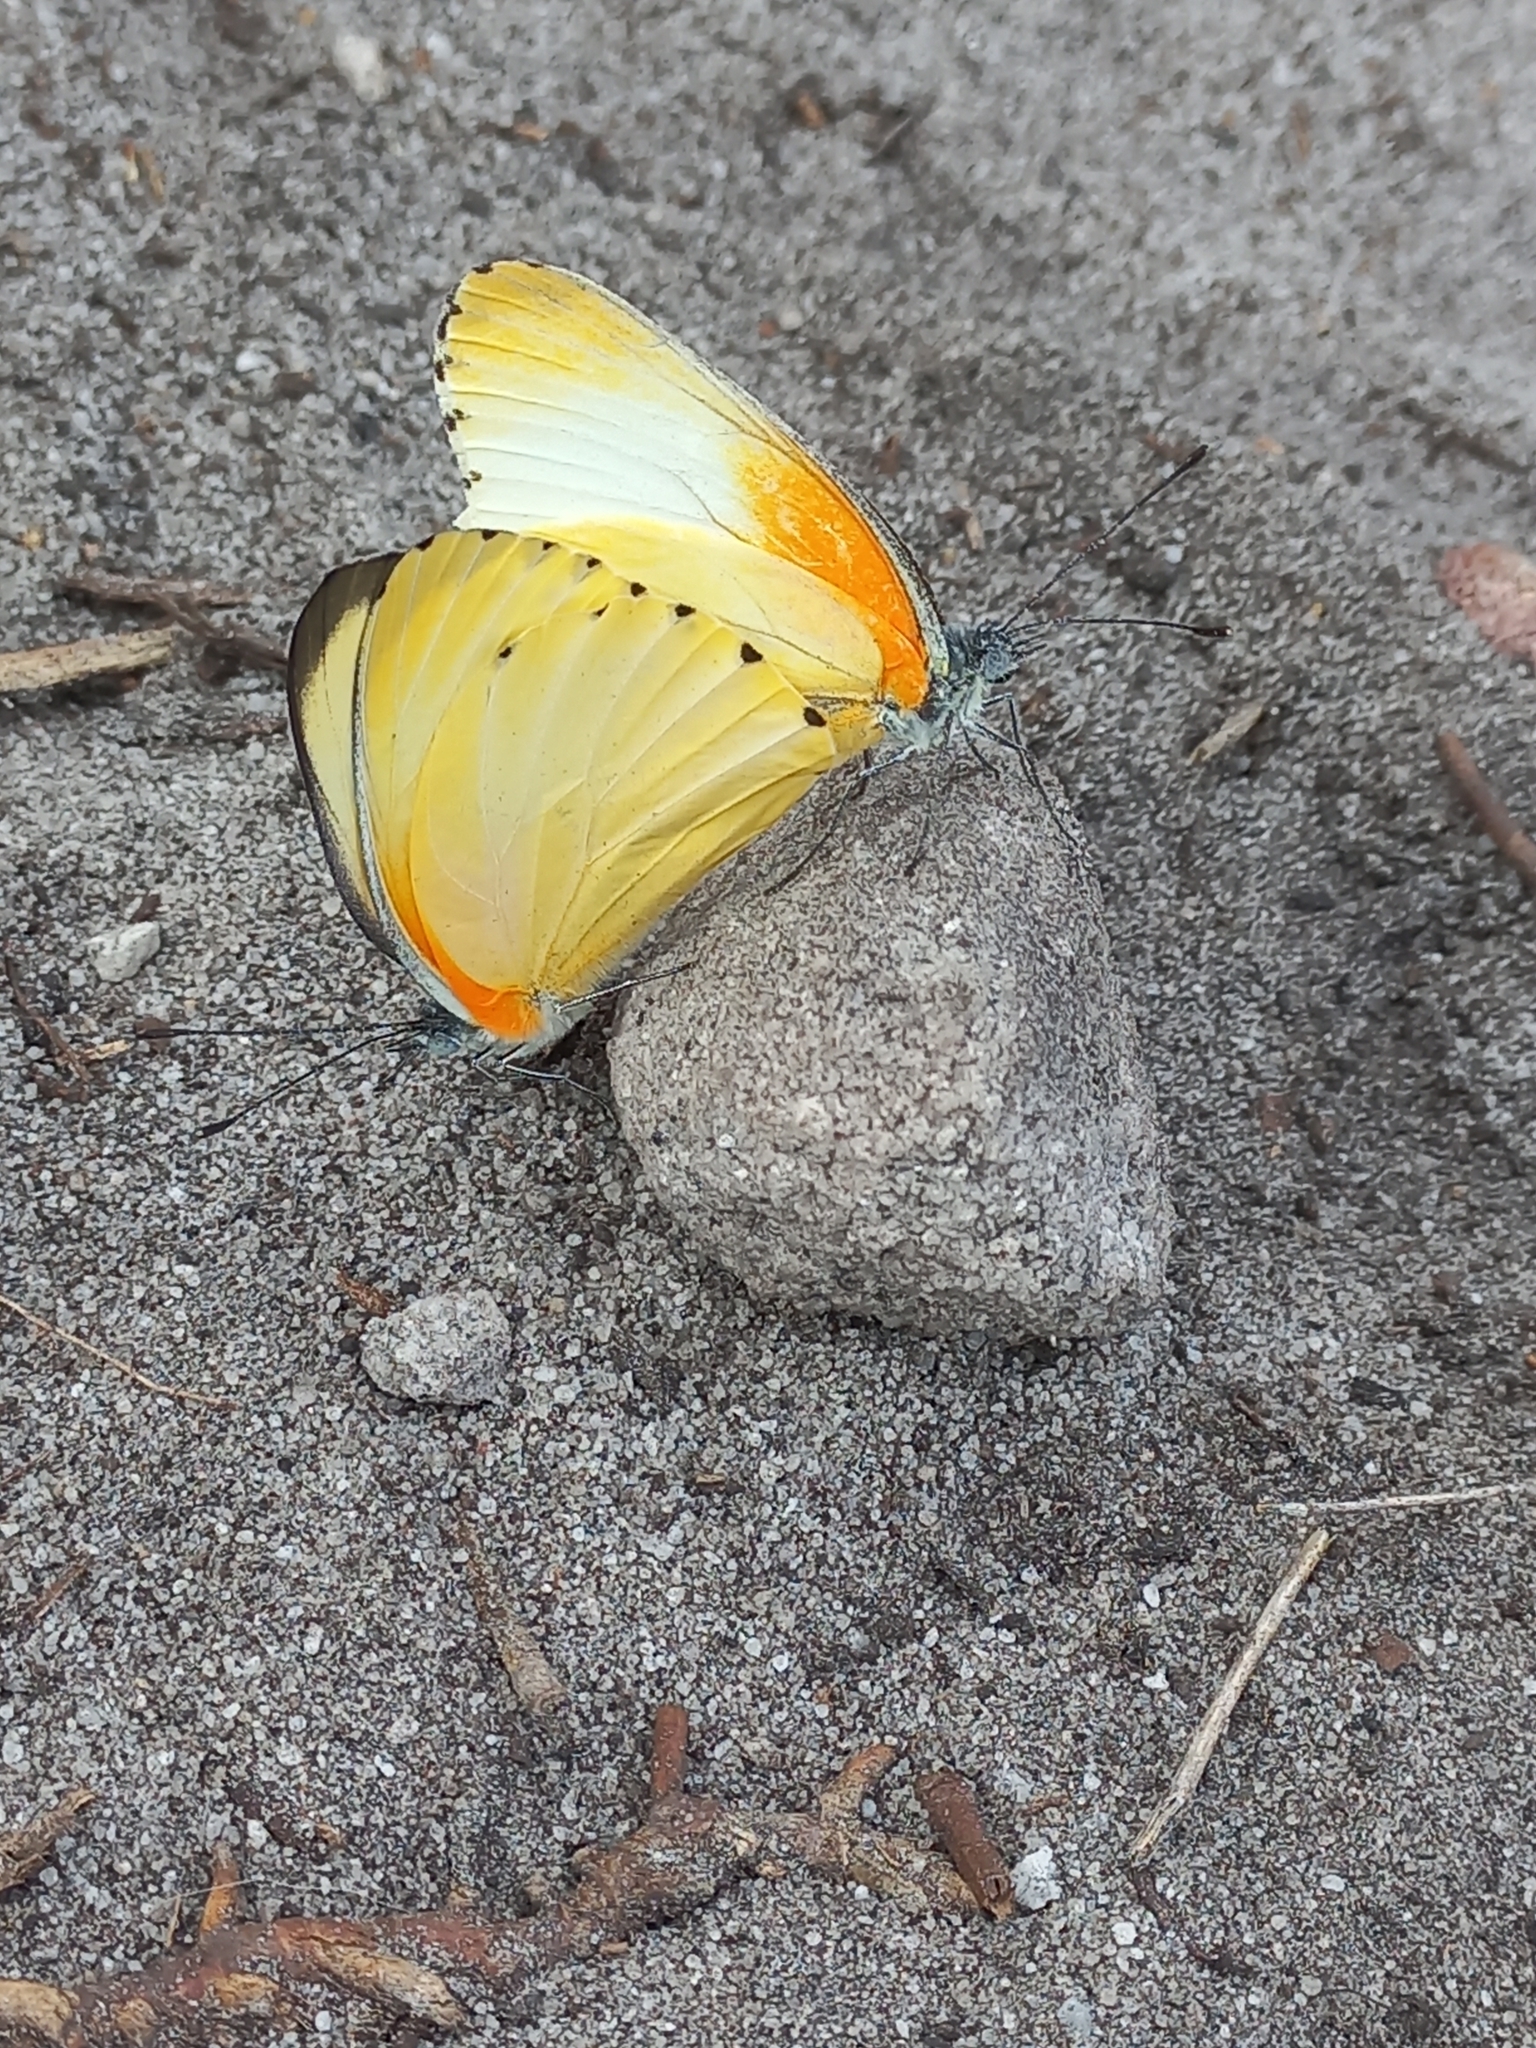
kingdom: Animalia
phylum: Arthropoda
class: Insecta
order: Lepidoptera
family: Pieridae
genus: Mylothris
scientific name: Mylothris agathina
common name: Eastern dotted border
